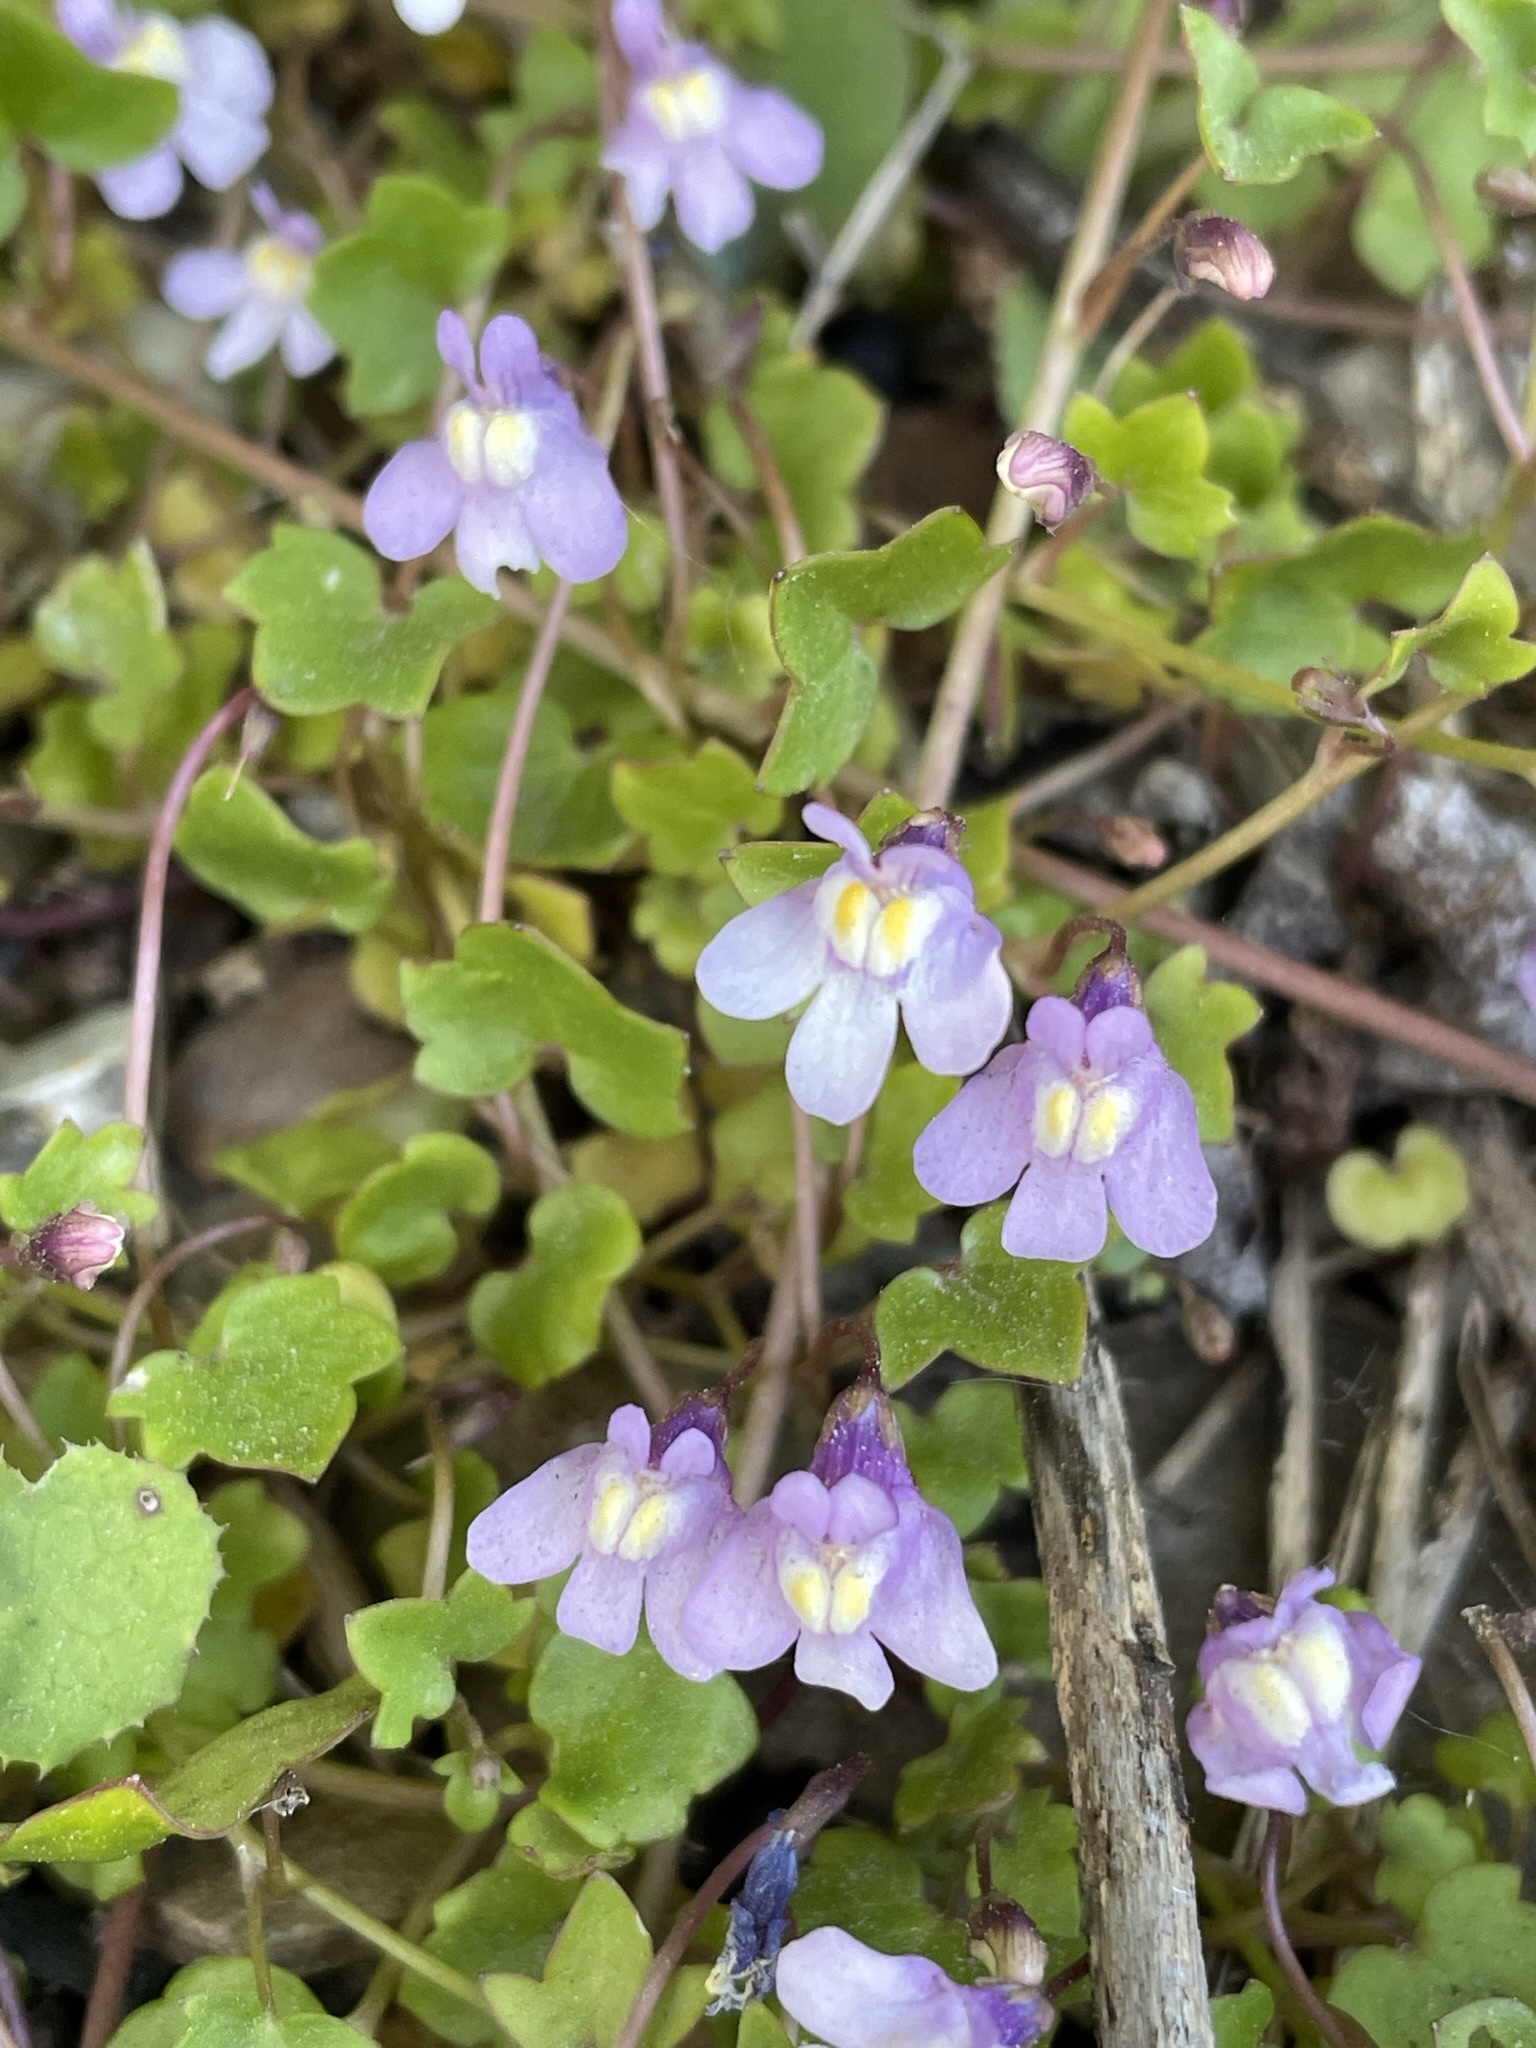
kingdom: Plantae
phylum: Tracheophyta
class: Magnoliopsida
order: Lamiales
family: Plantaginaceae
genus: Cymbalaria
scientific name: Cymbalaria muralis
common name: Ivy-leaved toadflax
